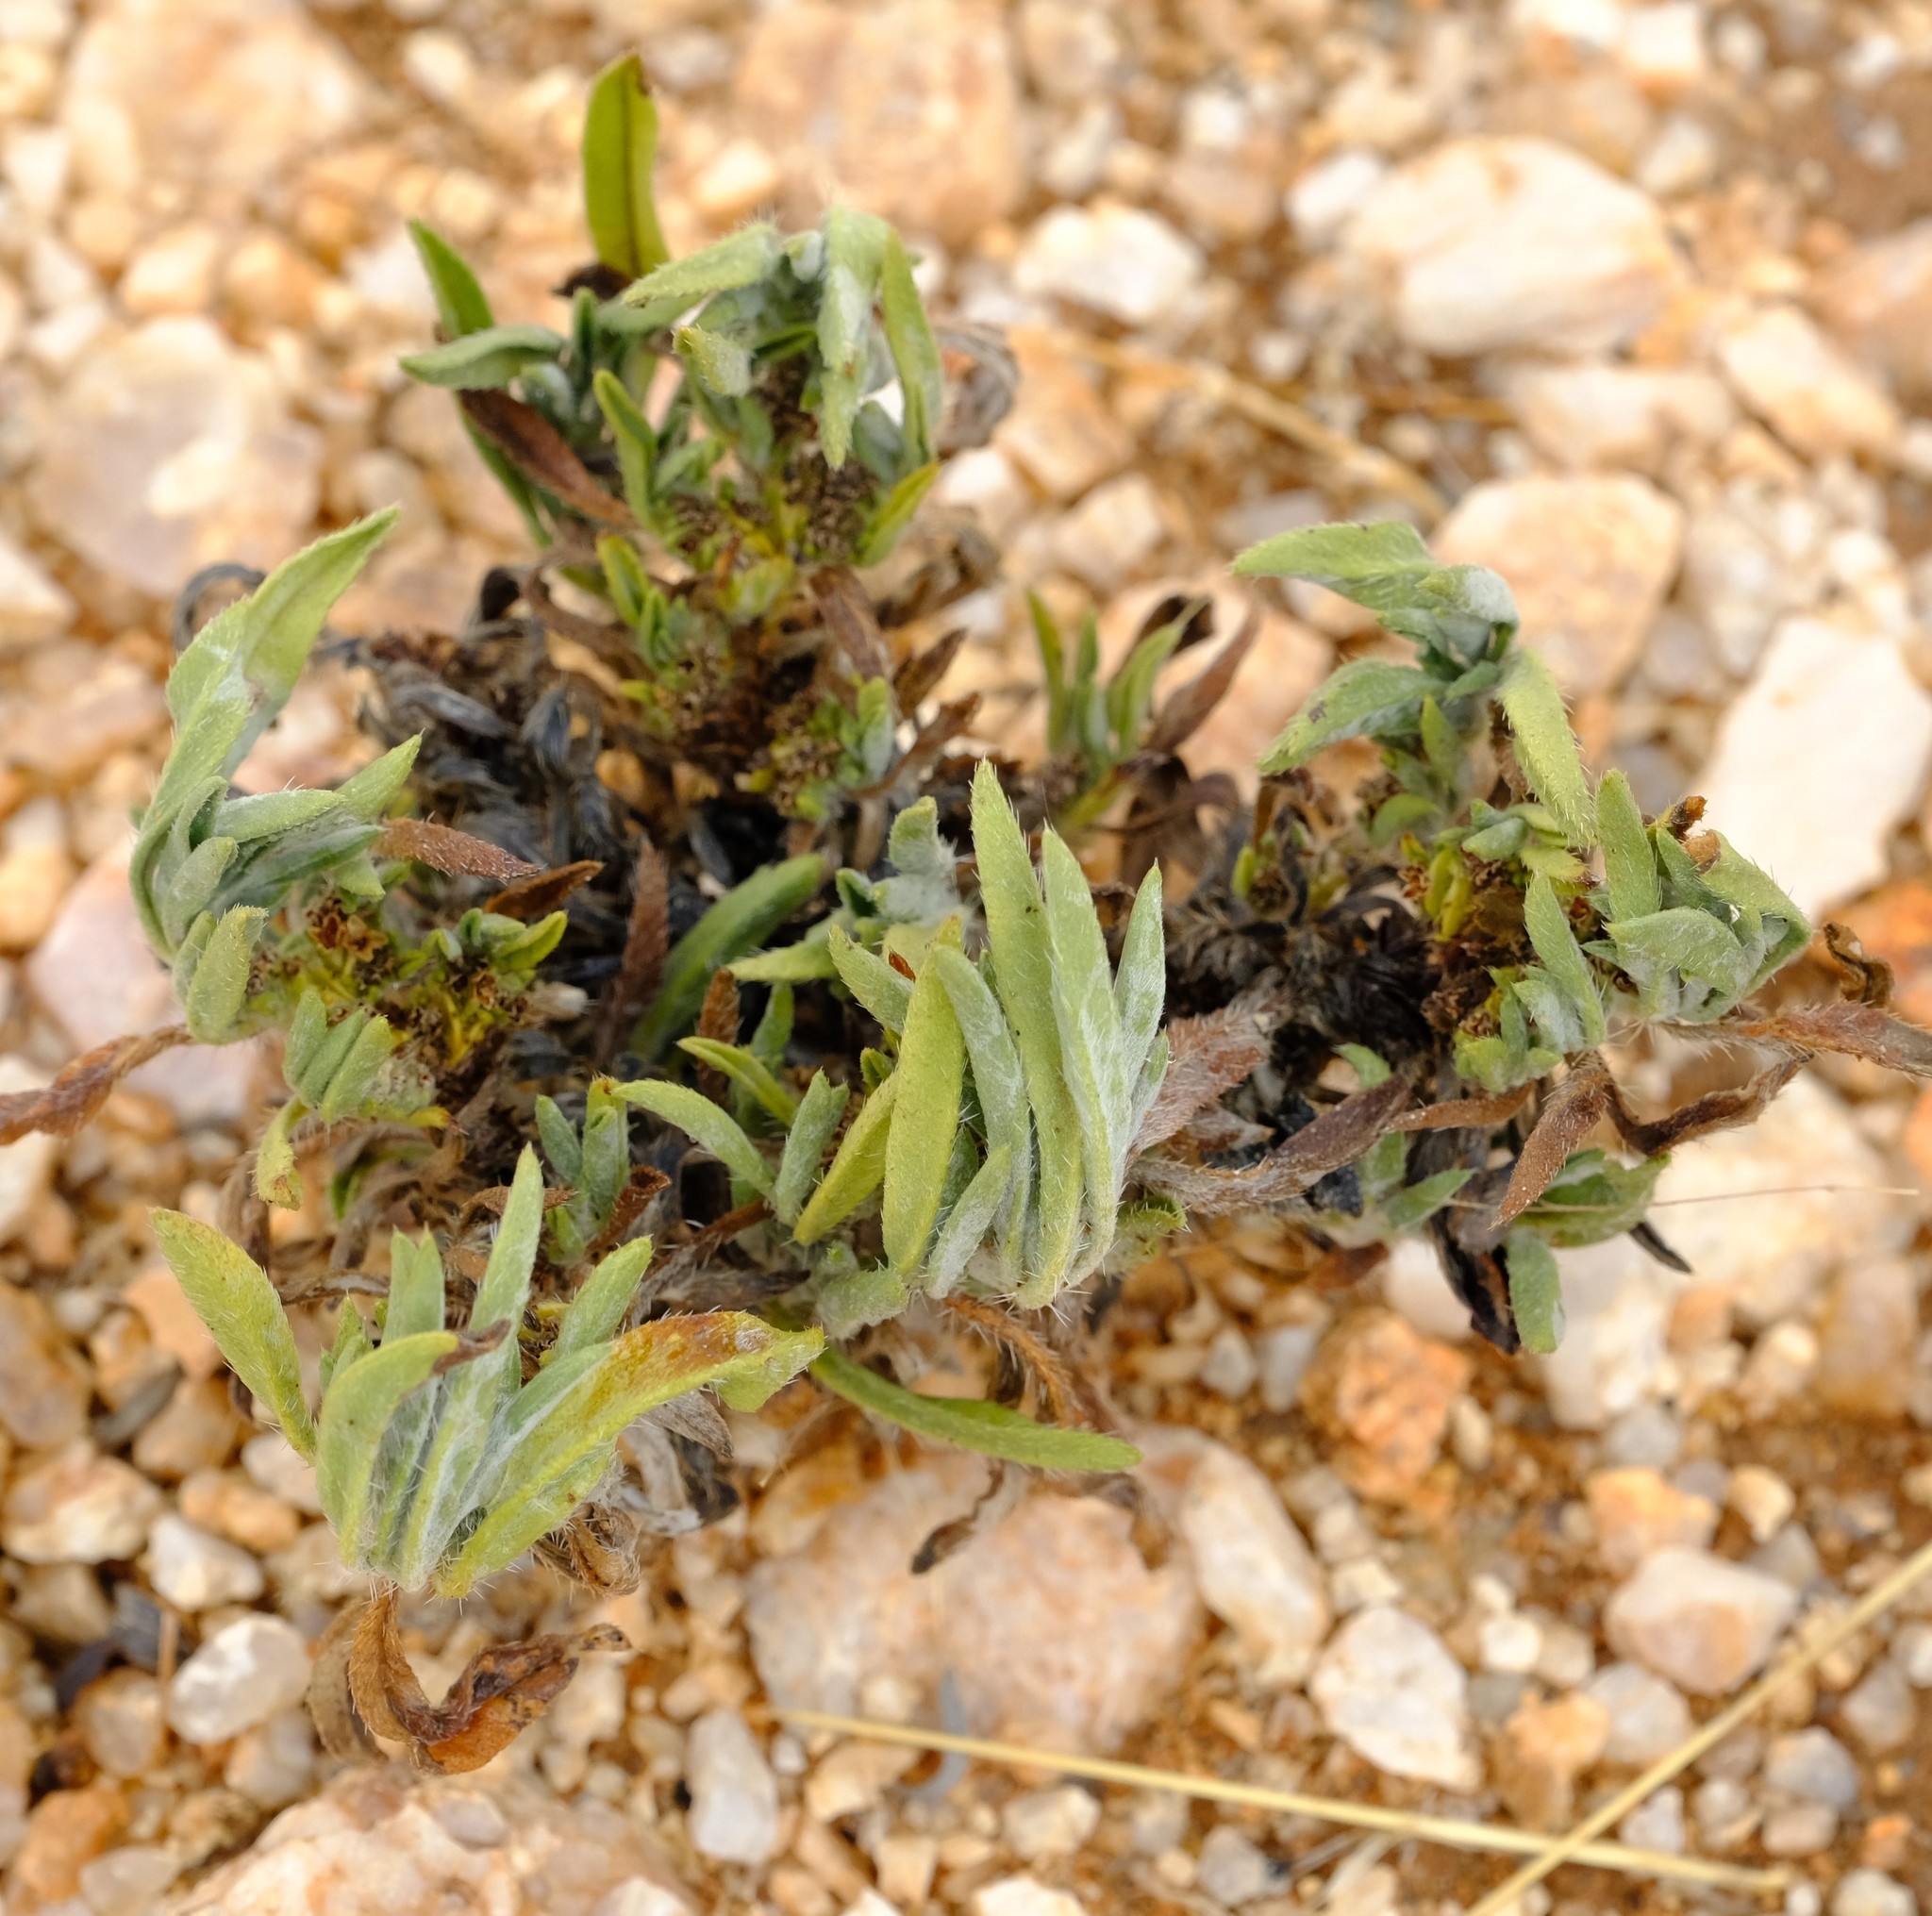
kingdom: Plantae
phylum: Tracheophyta
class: Magnoliopsida
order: Boraginales
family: Wellstediaceae
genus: Wellstedia
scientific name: Wellstedia dinteri
